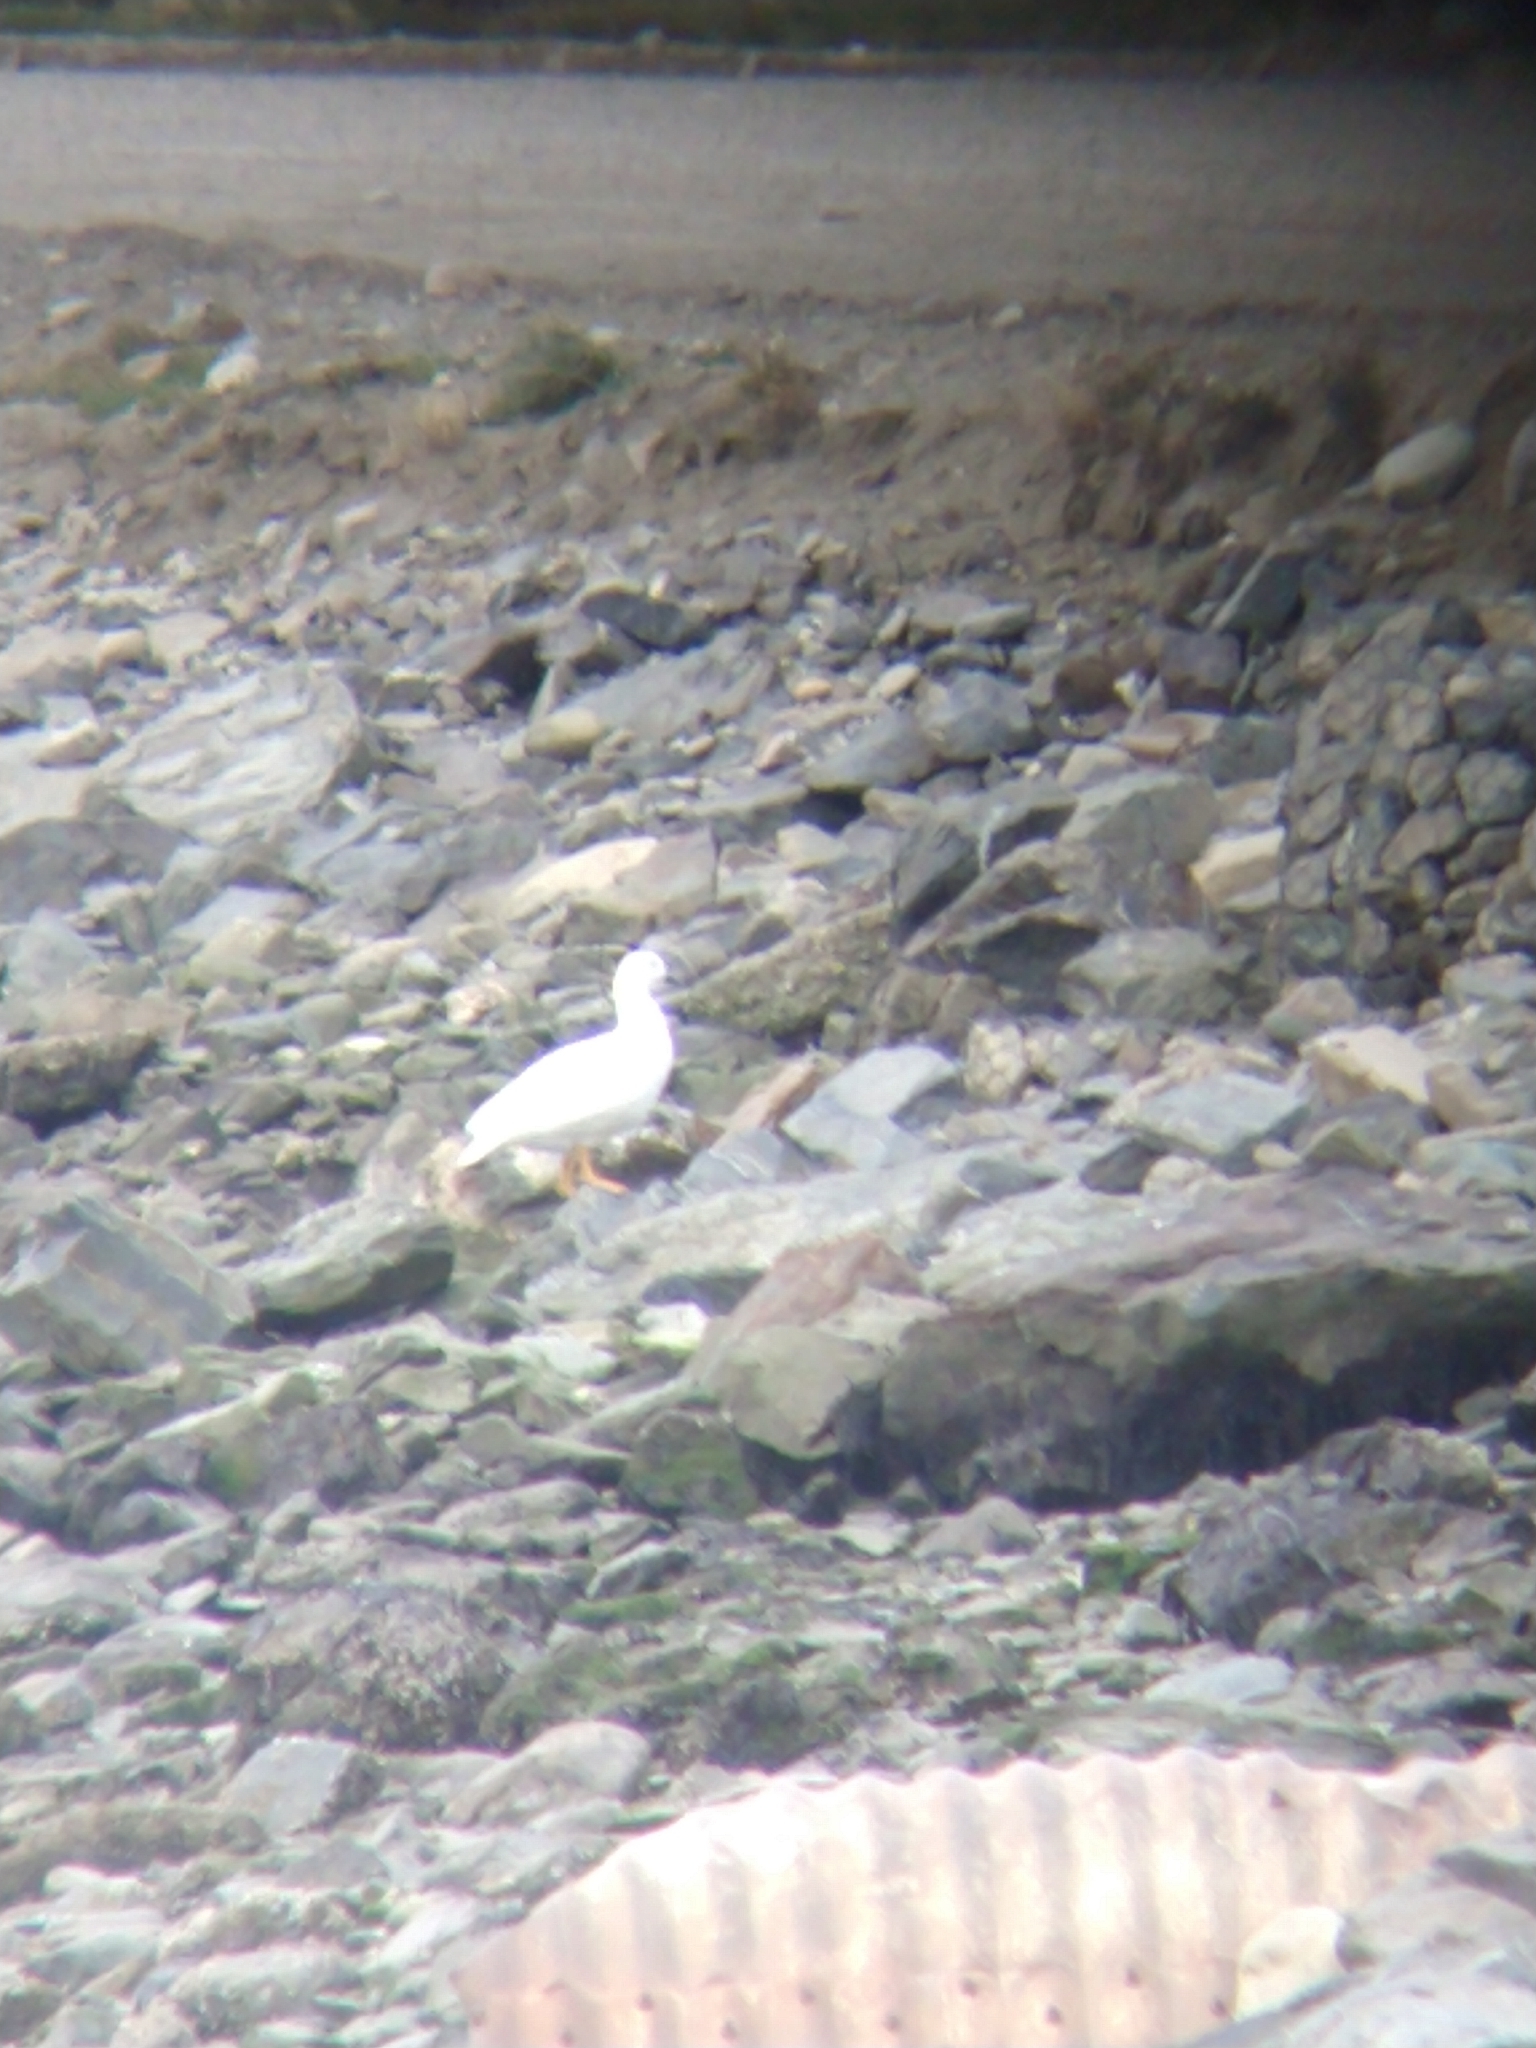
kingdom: Animalia
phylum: Chordata
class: Aves
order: Anseriformes
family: Anatidae
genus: Chloephaga
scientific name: Chloephaga hybrida
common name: Kelp goose
